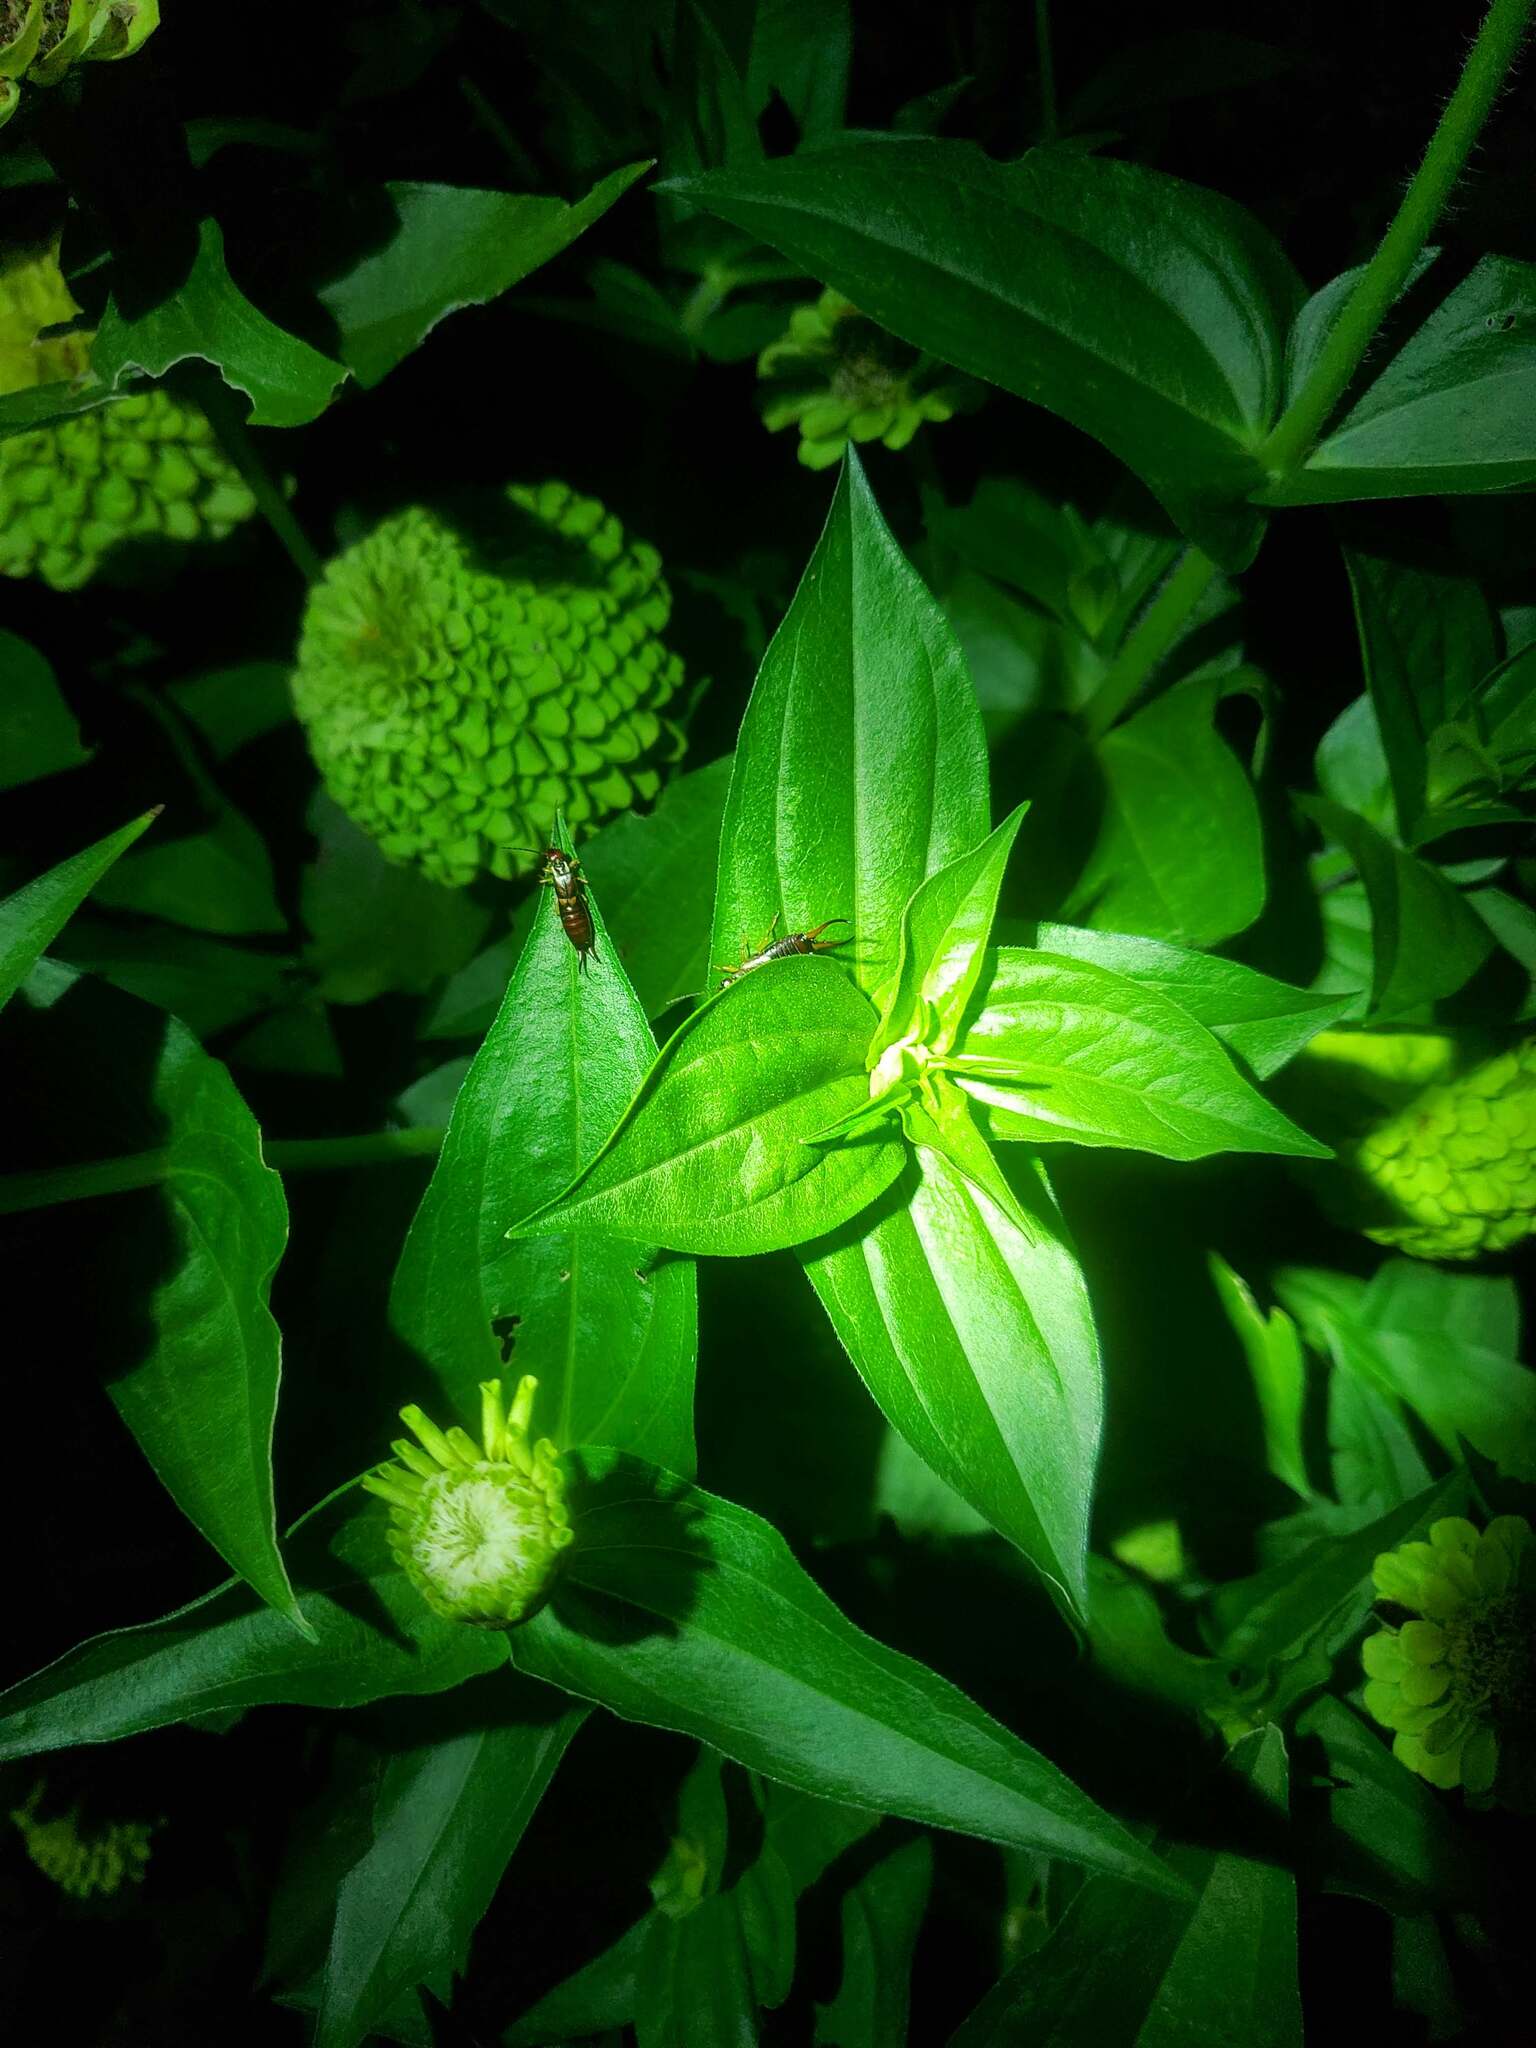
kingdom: Animalia
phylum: Arthropoda
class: Insecta
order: Dermaptera
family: Forficulidae
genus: Forficula
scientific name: Forficula
